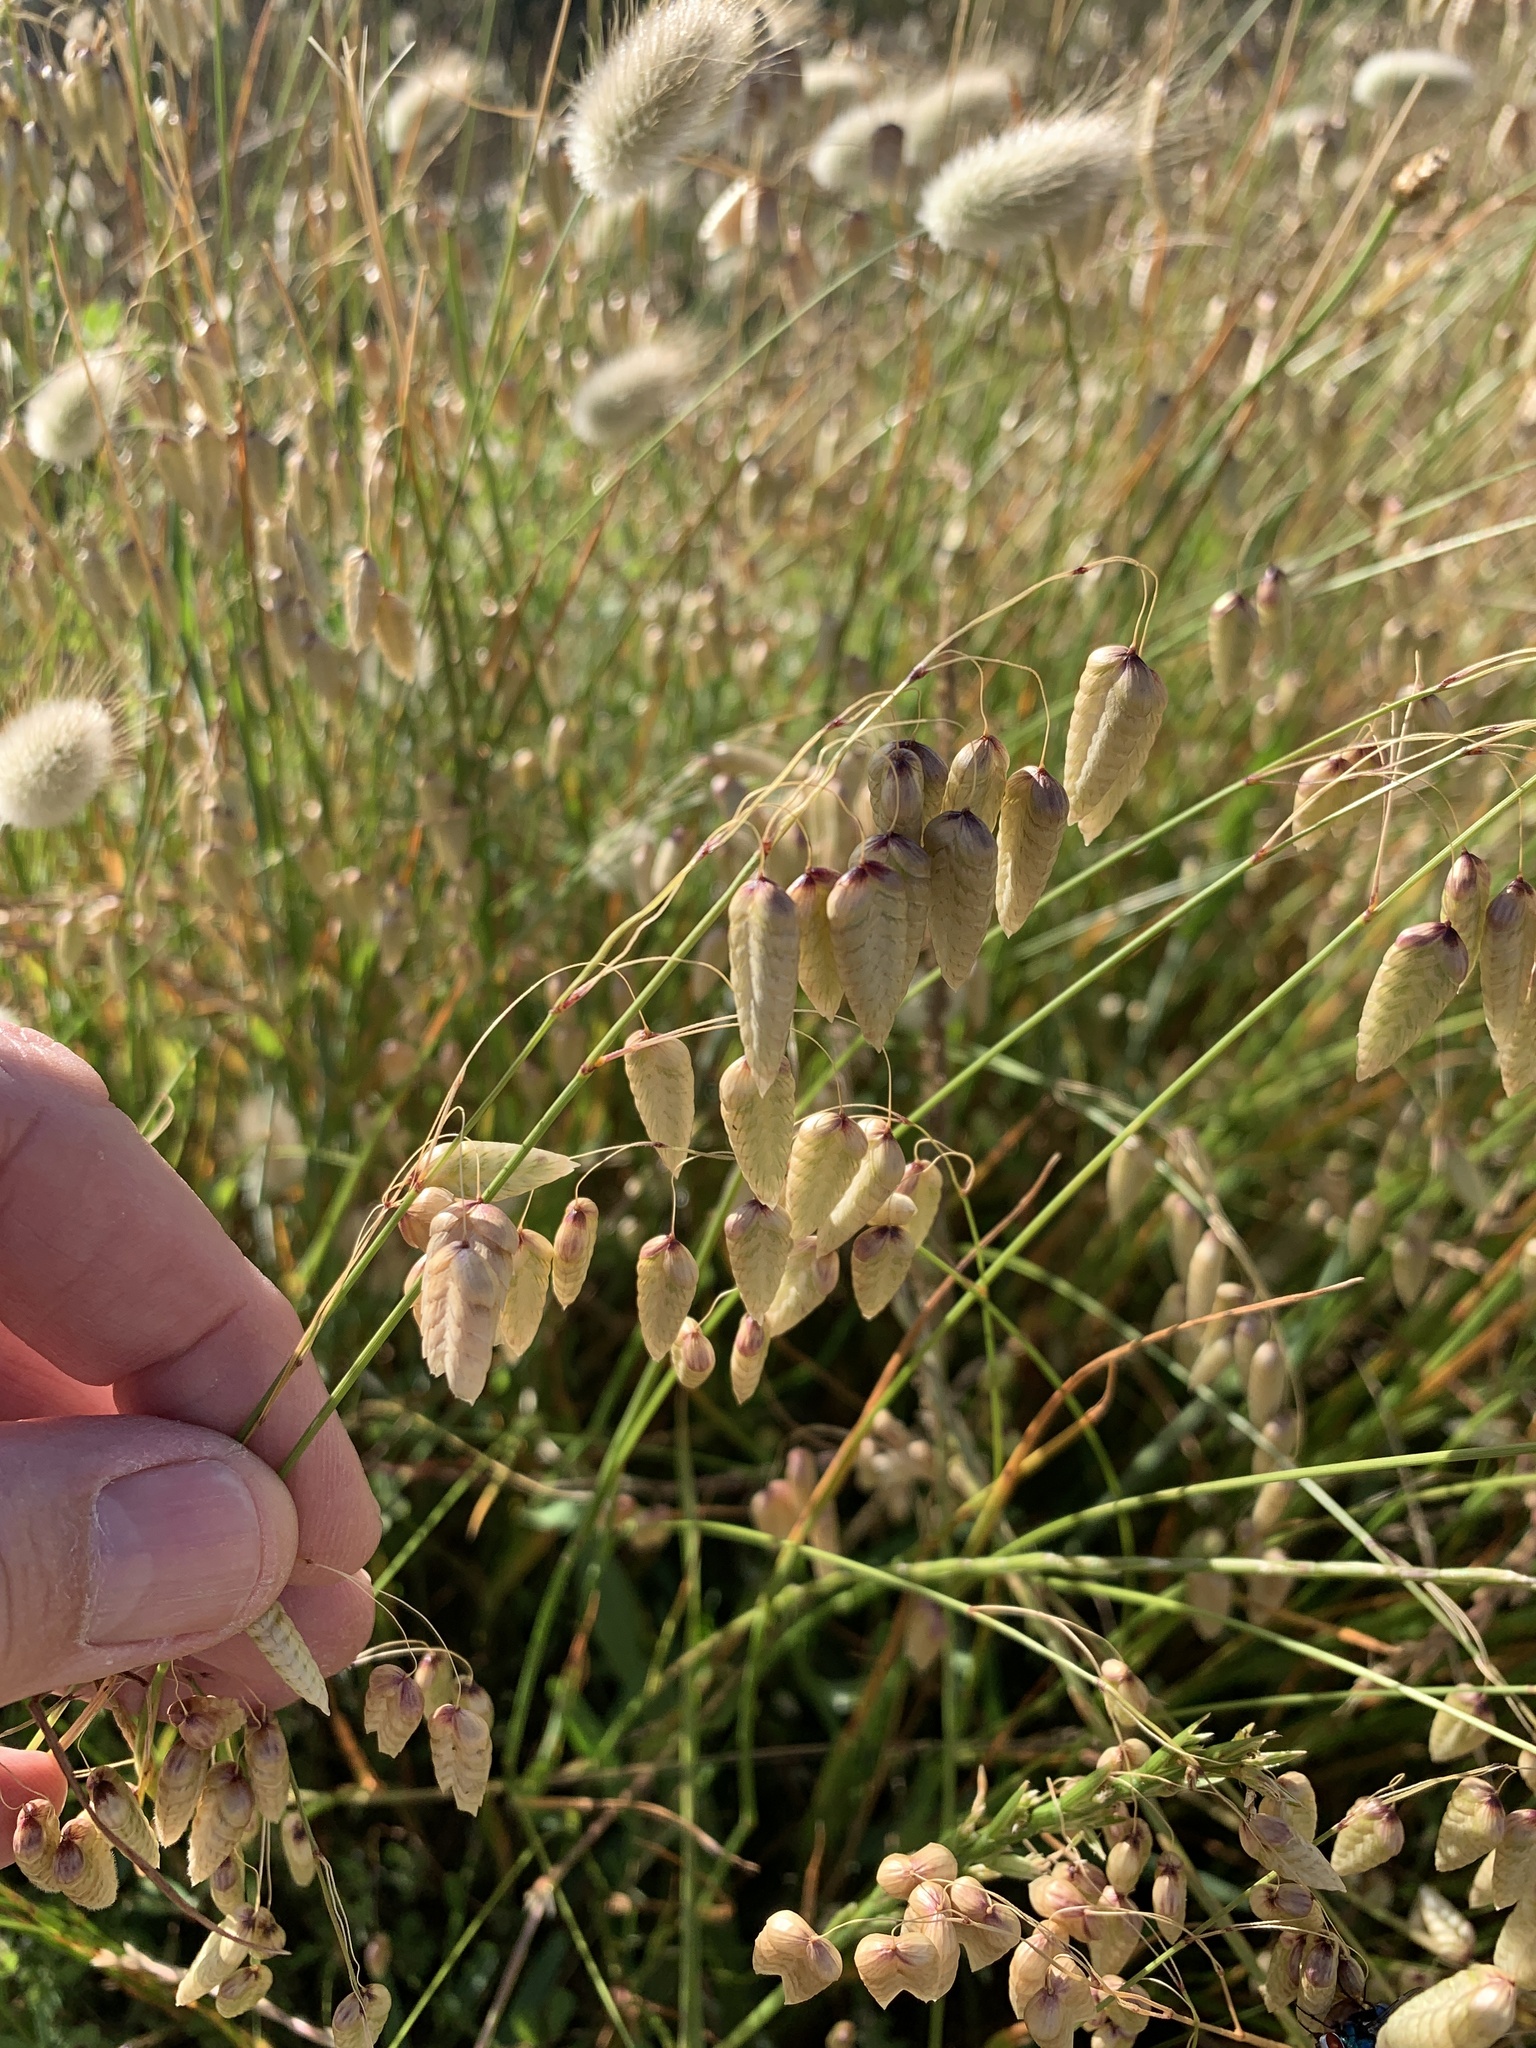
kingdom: Plantae
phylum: Tracheophyta
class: Liliopsida
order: Poales
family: Poaceae
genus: Briza
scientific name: Briza maxima
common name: Big quakinggrass
